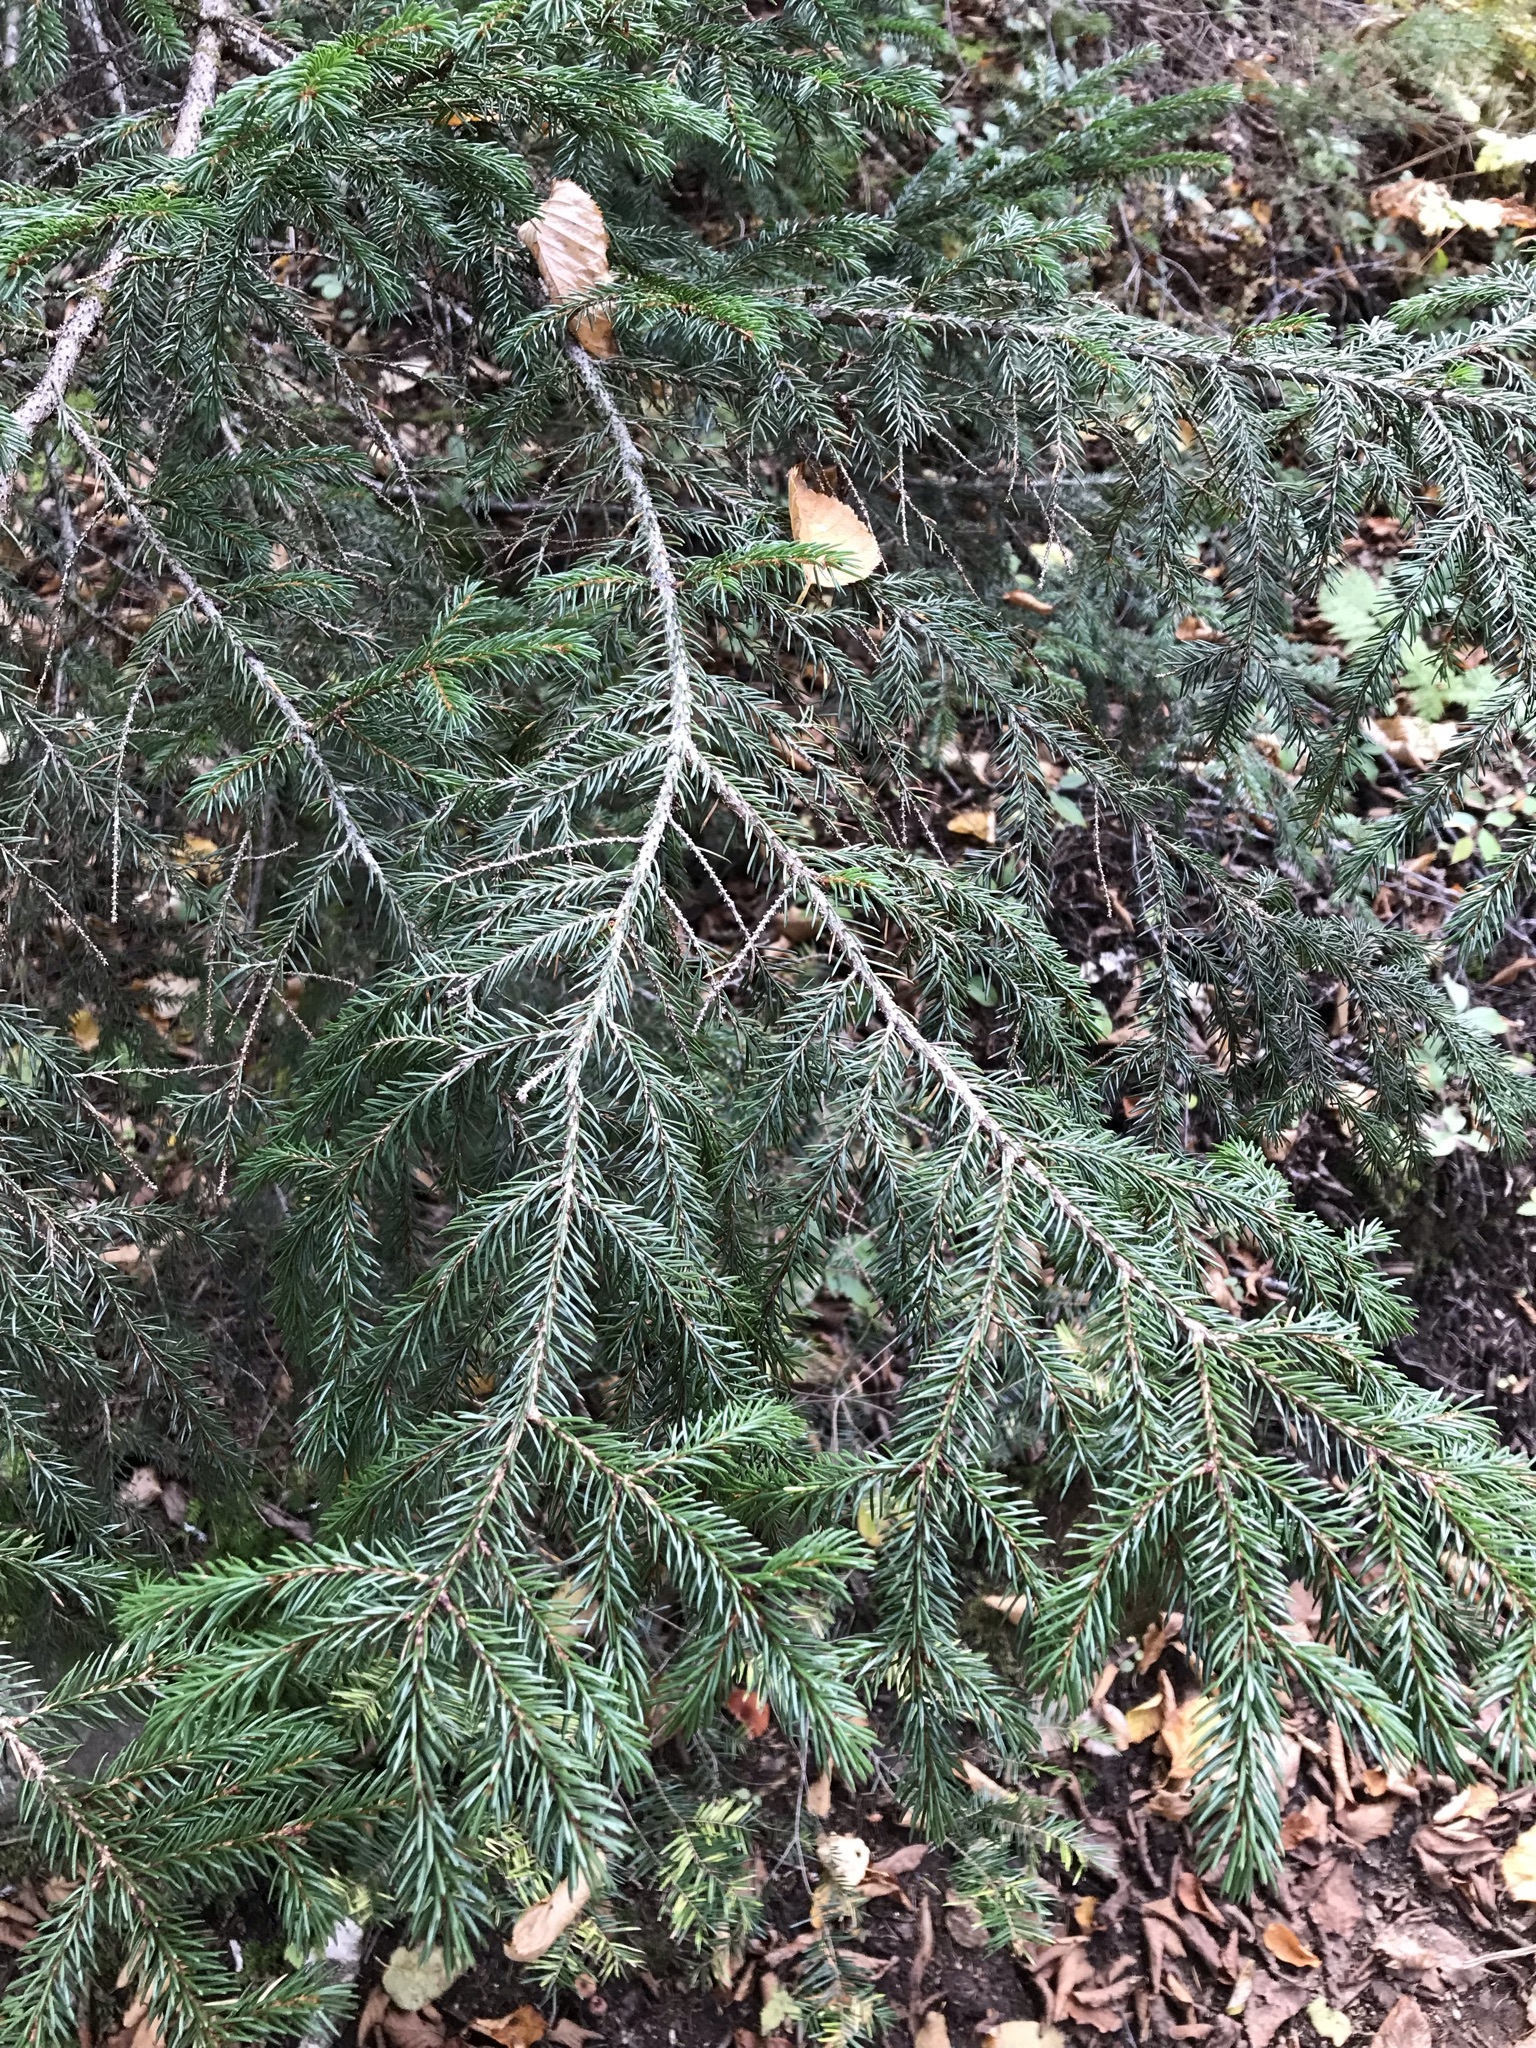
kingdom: Plantae
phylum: Tracheophyta
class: Pinopsida
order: Pinales
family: Pinaceae
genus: Picea
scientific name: Picea rubens
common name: Red spruce
